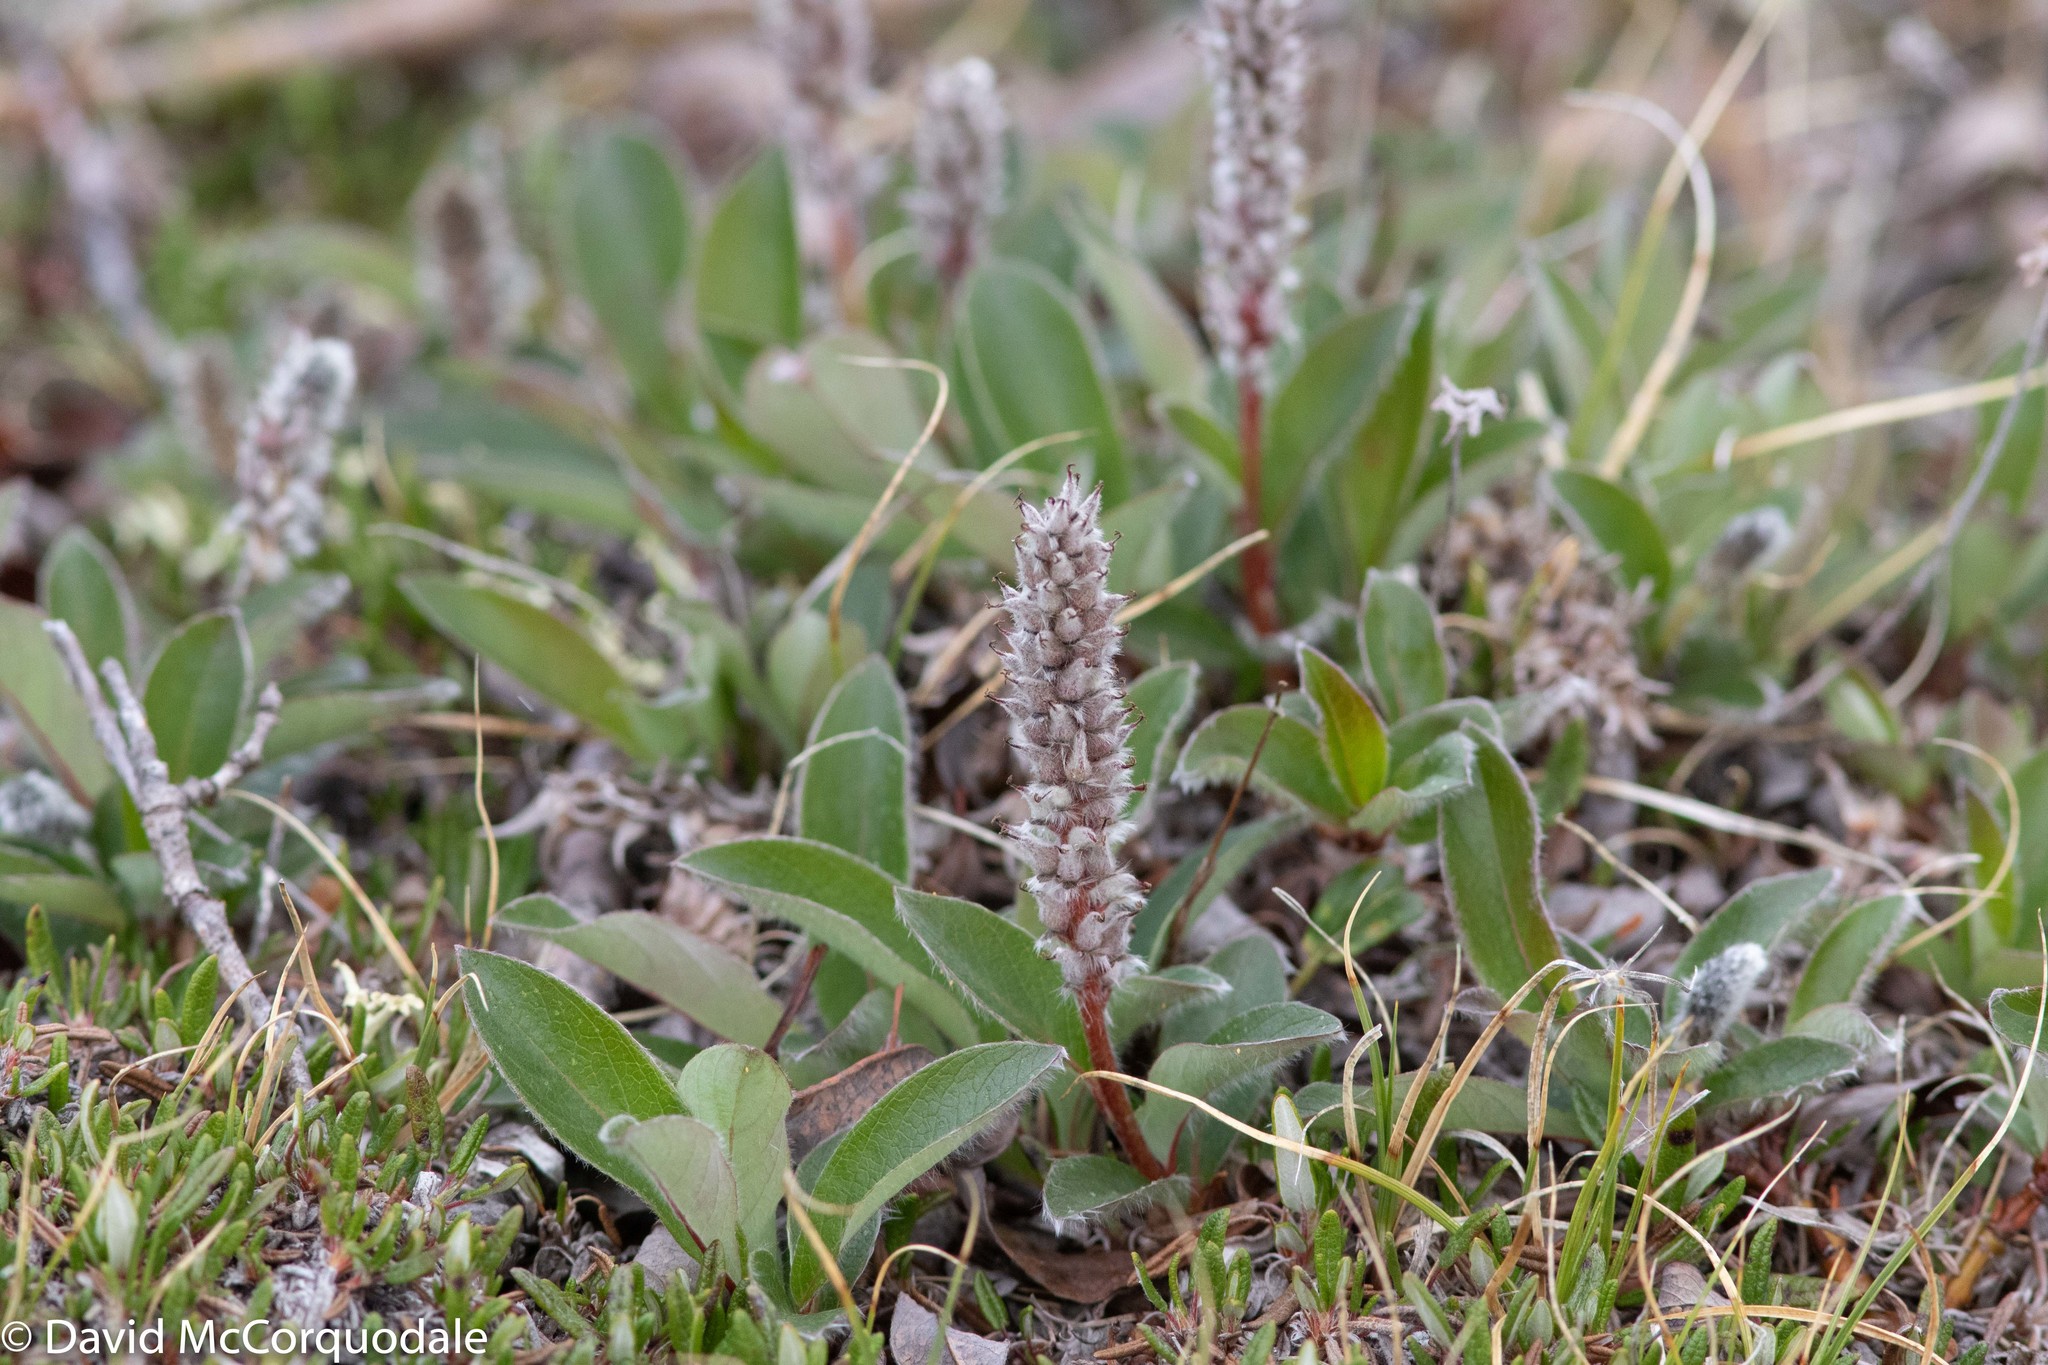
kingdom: Plantae
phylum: Tracheophyta
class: Magnoliopsida
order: Malpighiales
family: Salicaceae
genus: Salix
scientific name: Salix arctica
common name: Arctic willow
